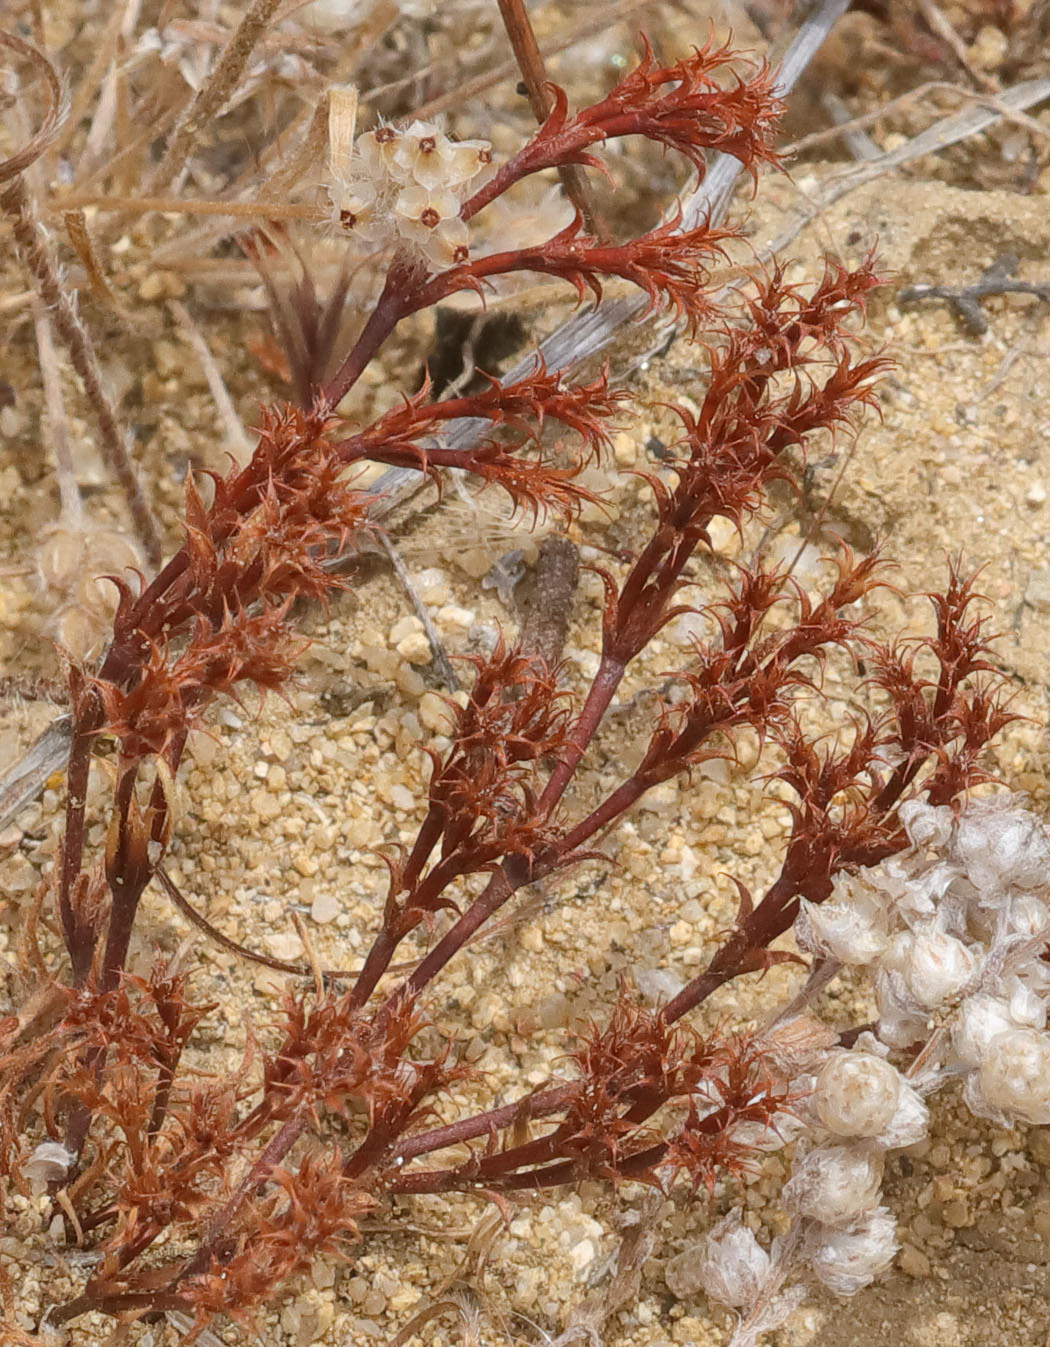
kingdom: Plantae
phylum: Tracheophyta
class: Magnoliopsida
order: Caryophyllales
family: Polygonaceae
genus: Lastarriaea
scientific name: Lastarriaea coriacea
